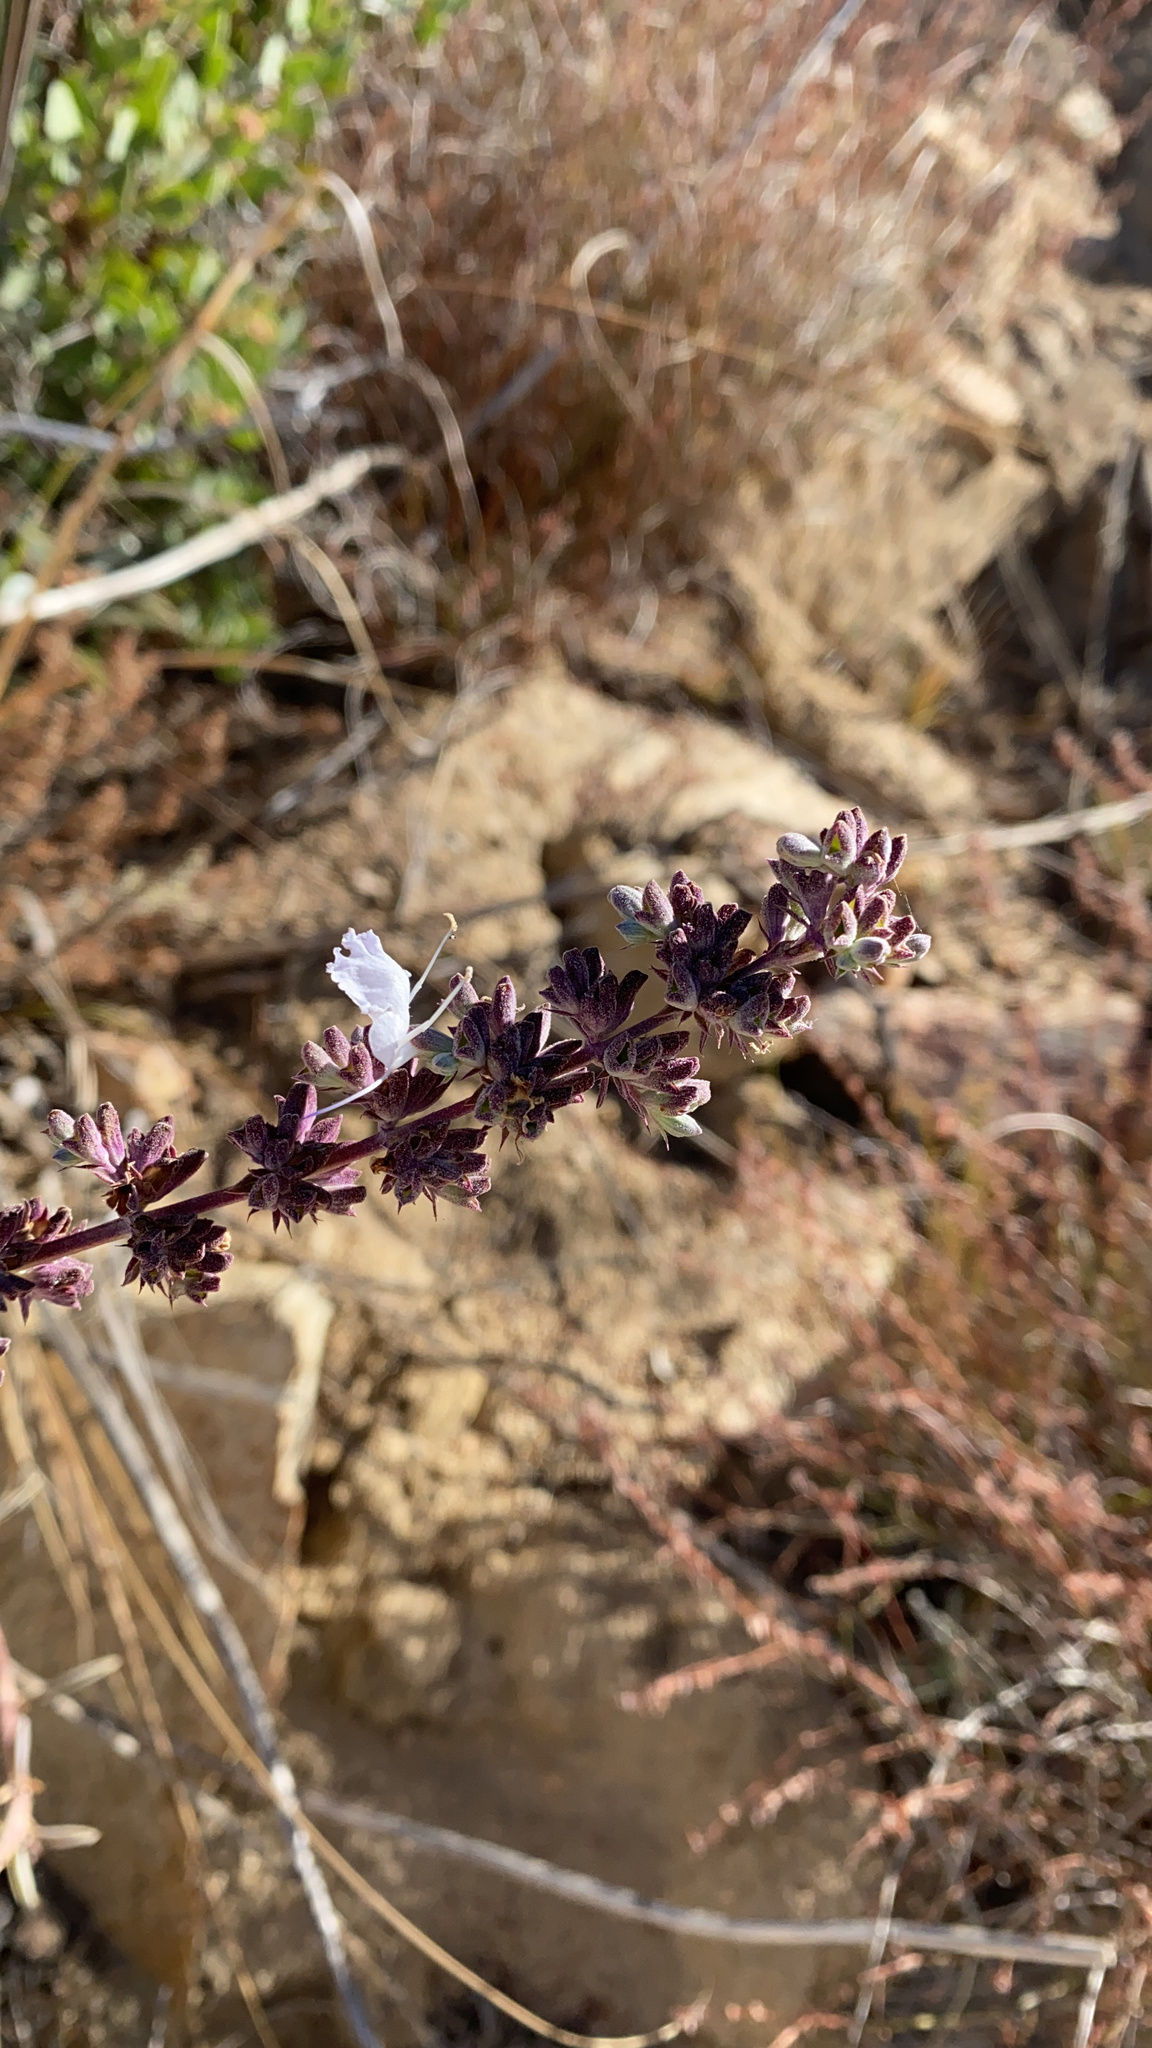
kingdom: Plantae
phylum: Tracheophyta
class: Magnoliopsida
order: Lamiales
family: Lamiaceae
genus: Salvia
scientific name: Salvia apiana
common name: White sage
